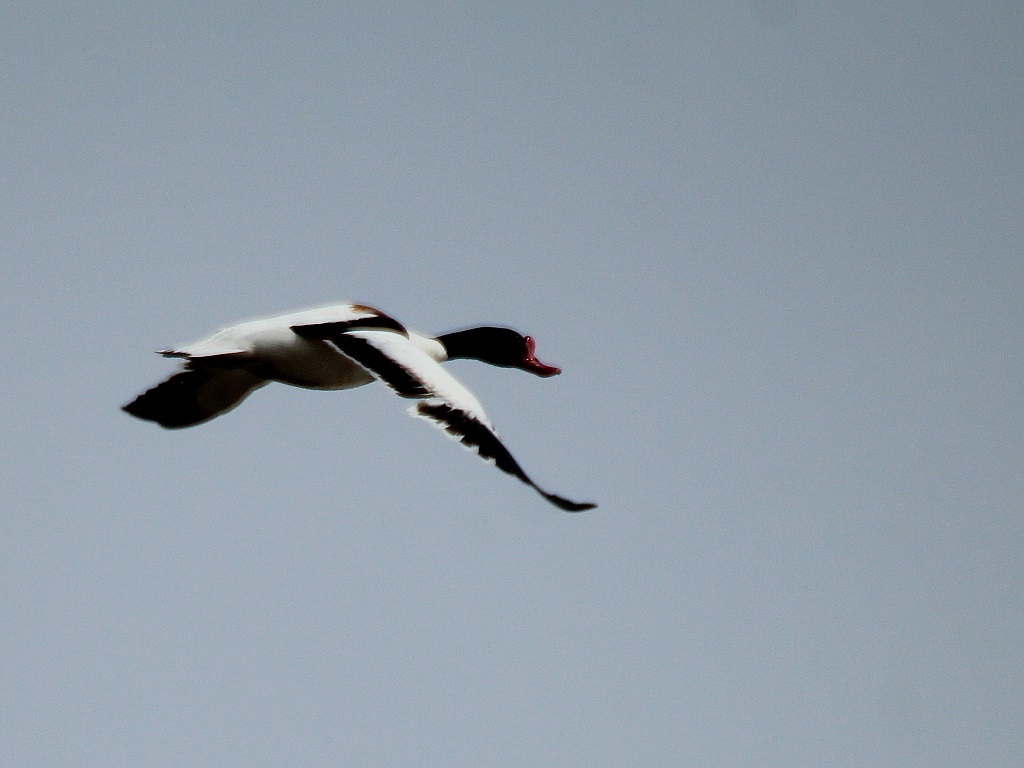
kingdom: Animalia
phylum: Chordata
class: Aves
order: Anseriformes
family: Anatidae
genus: Tadorna
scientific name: Tadorna tadorna
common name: Common shelduck
